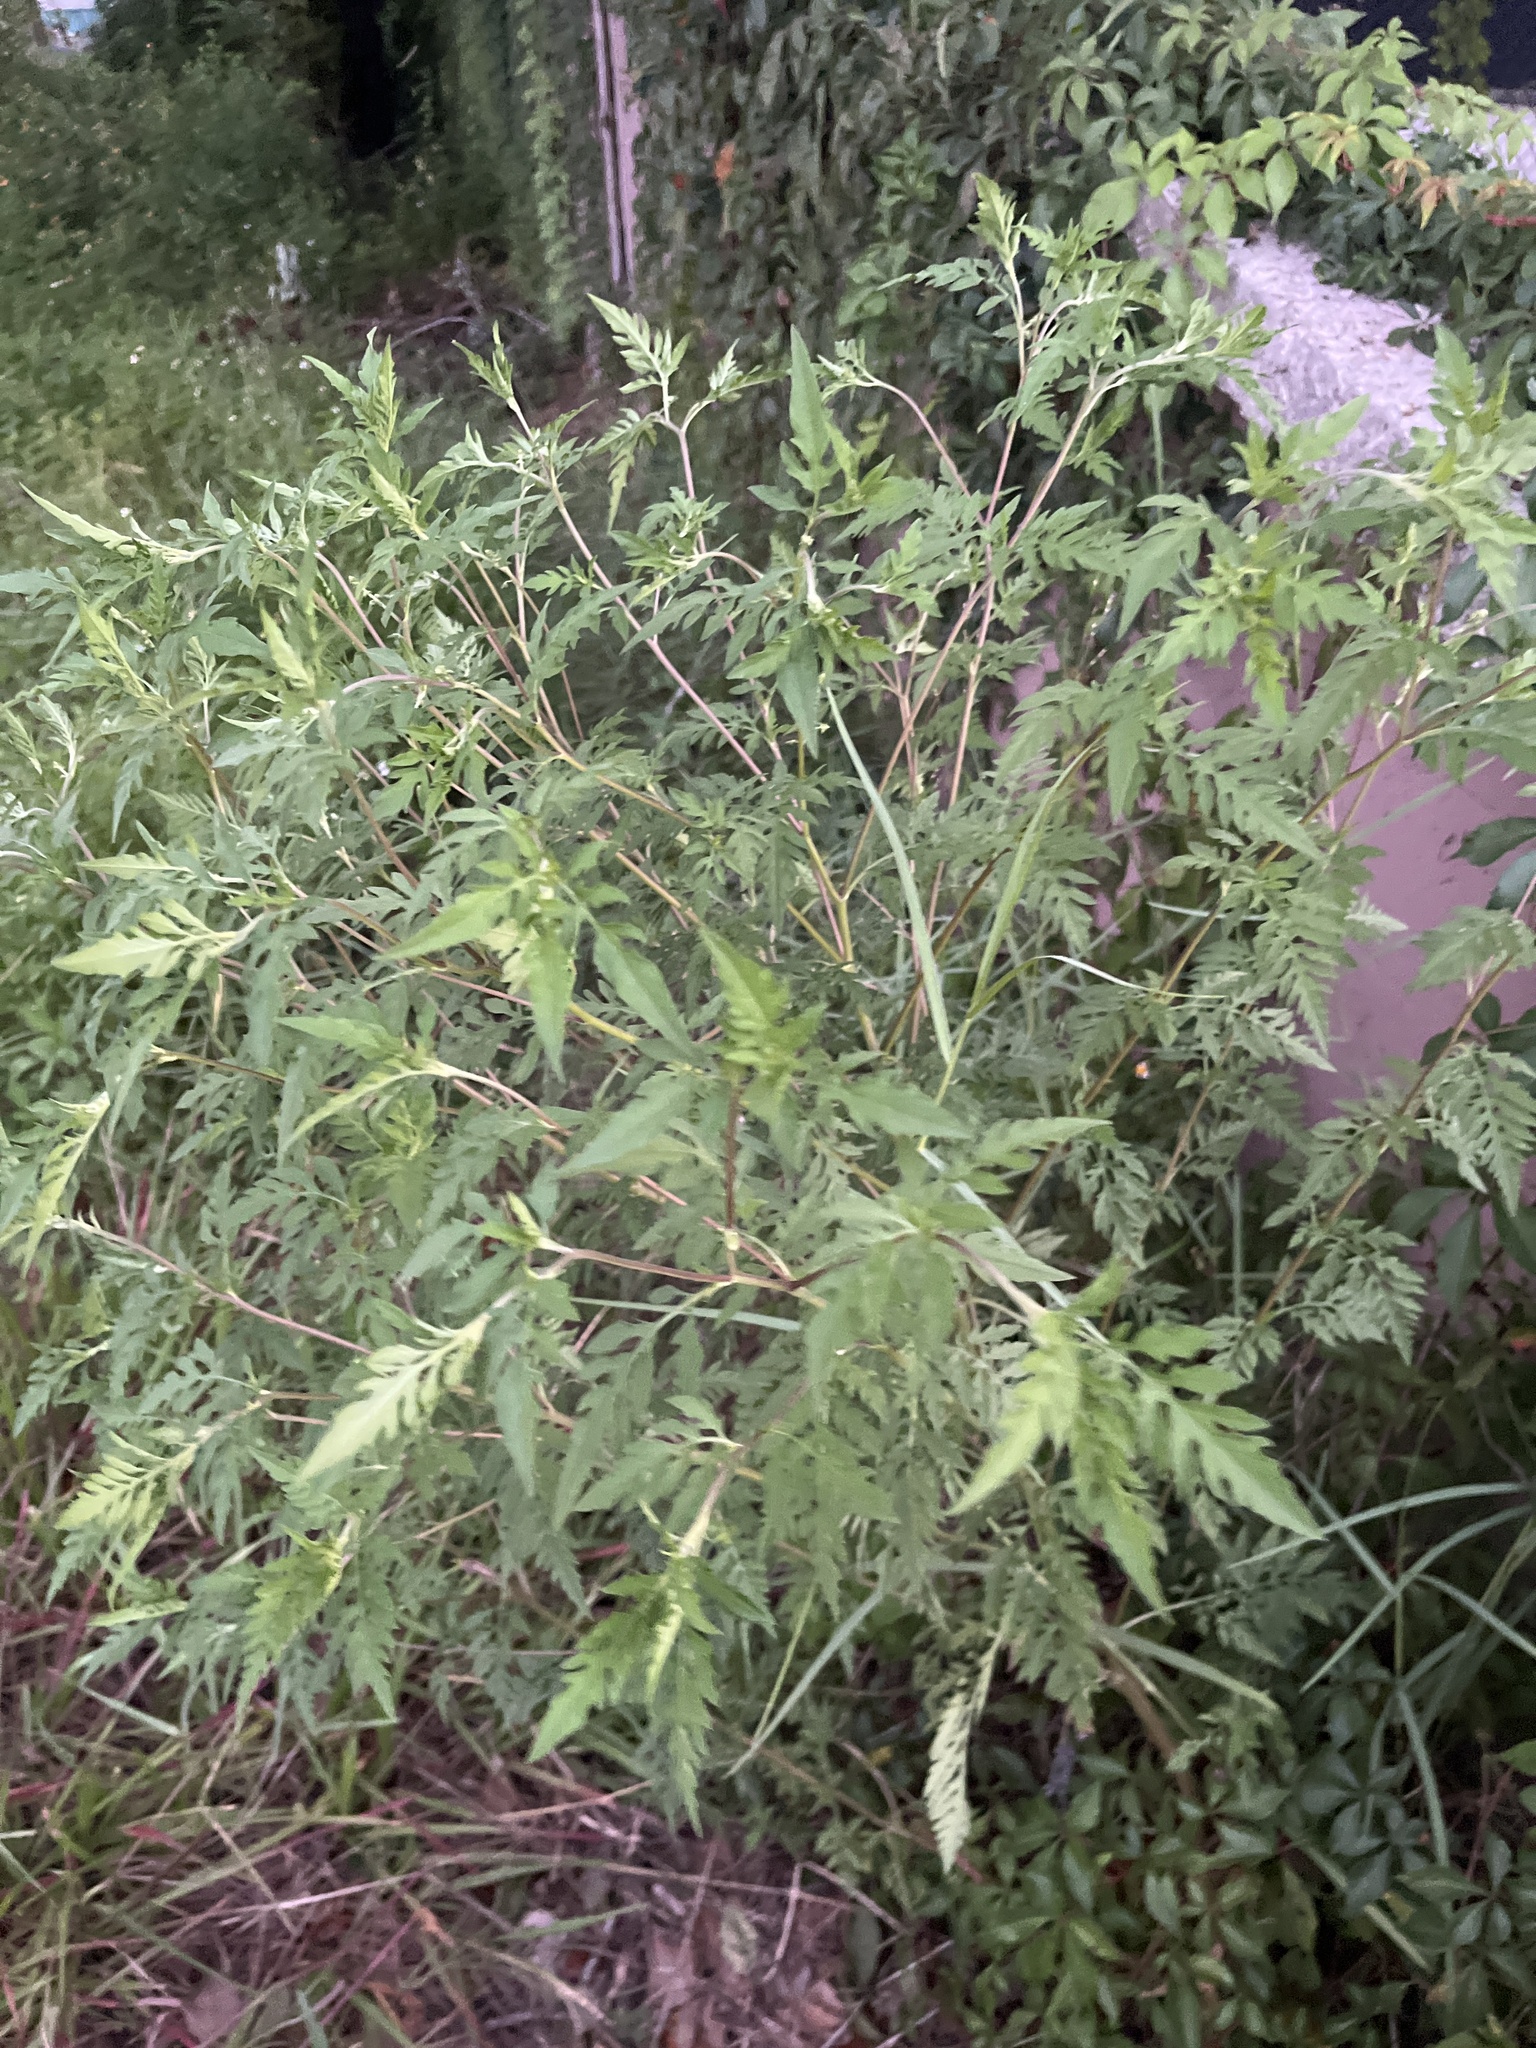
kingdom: Plantae
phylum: Tracheophyta
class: Magnoliopsida
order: Asterales
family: Asteraceae
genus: Ambrosia
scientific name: Ambrosia artemisiifolia
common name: Annual ragweed
